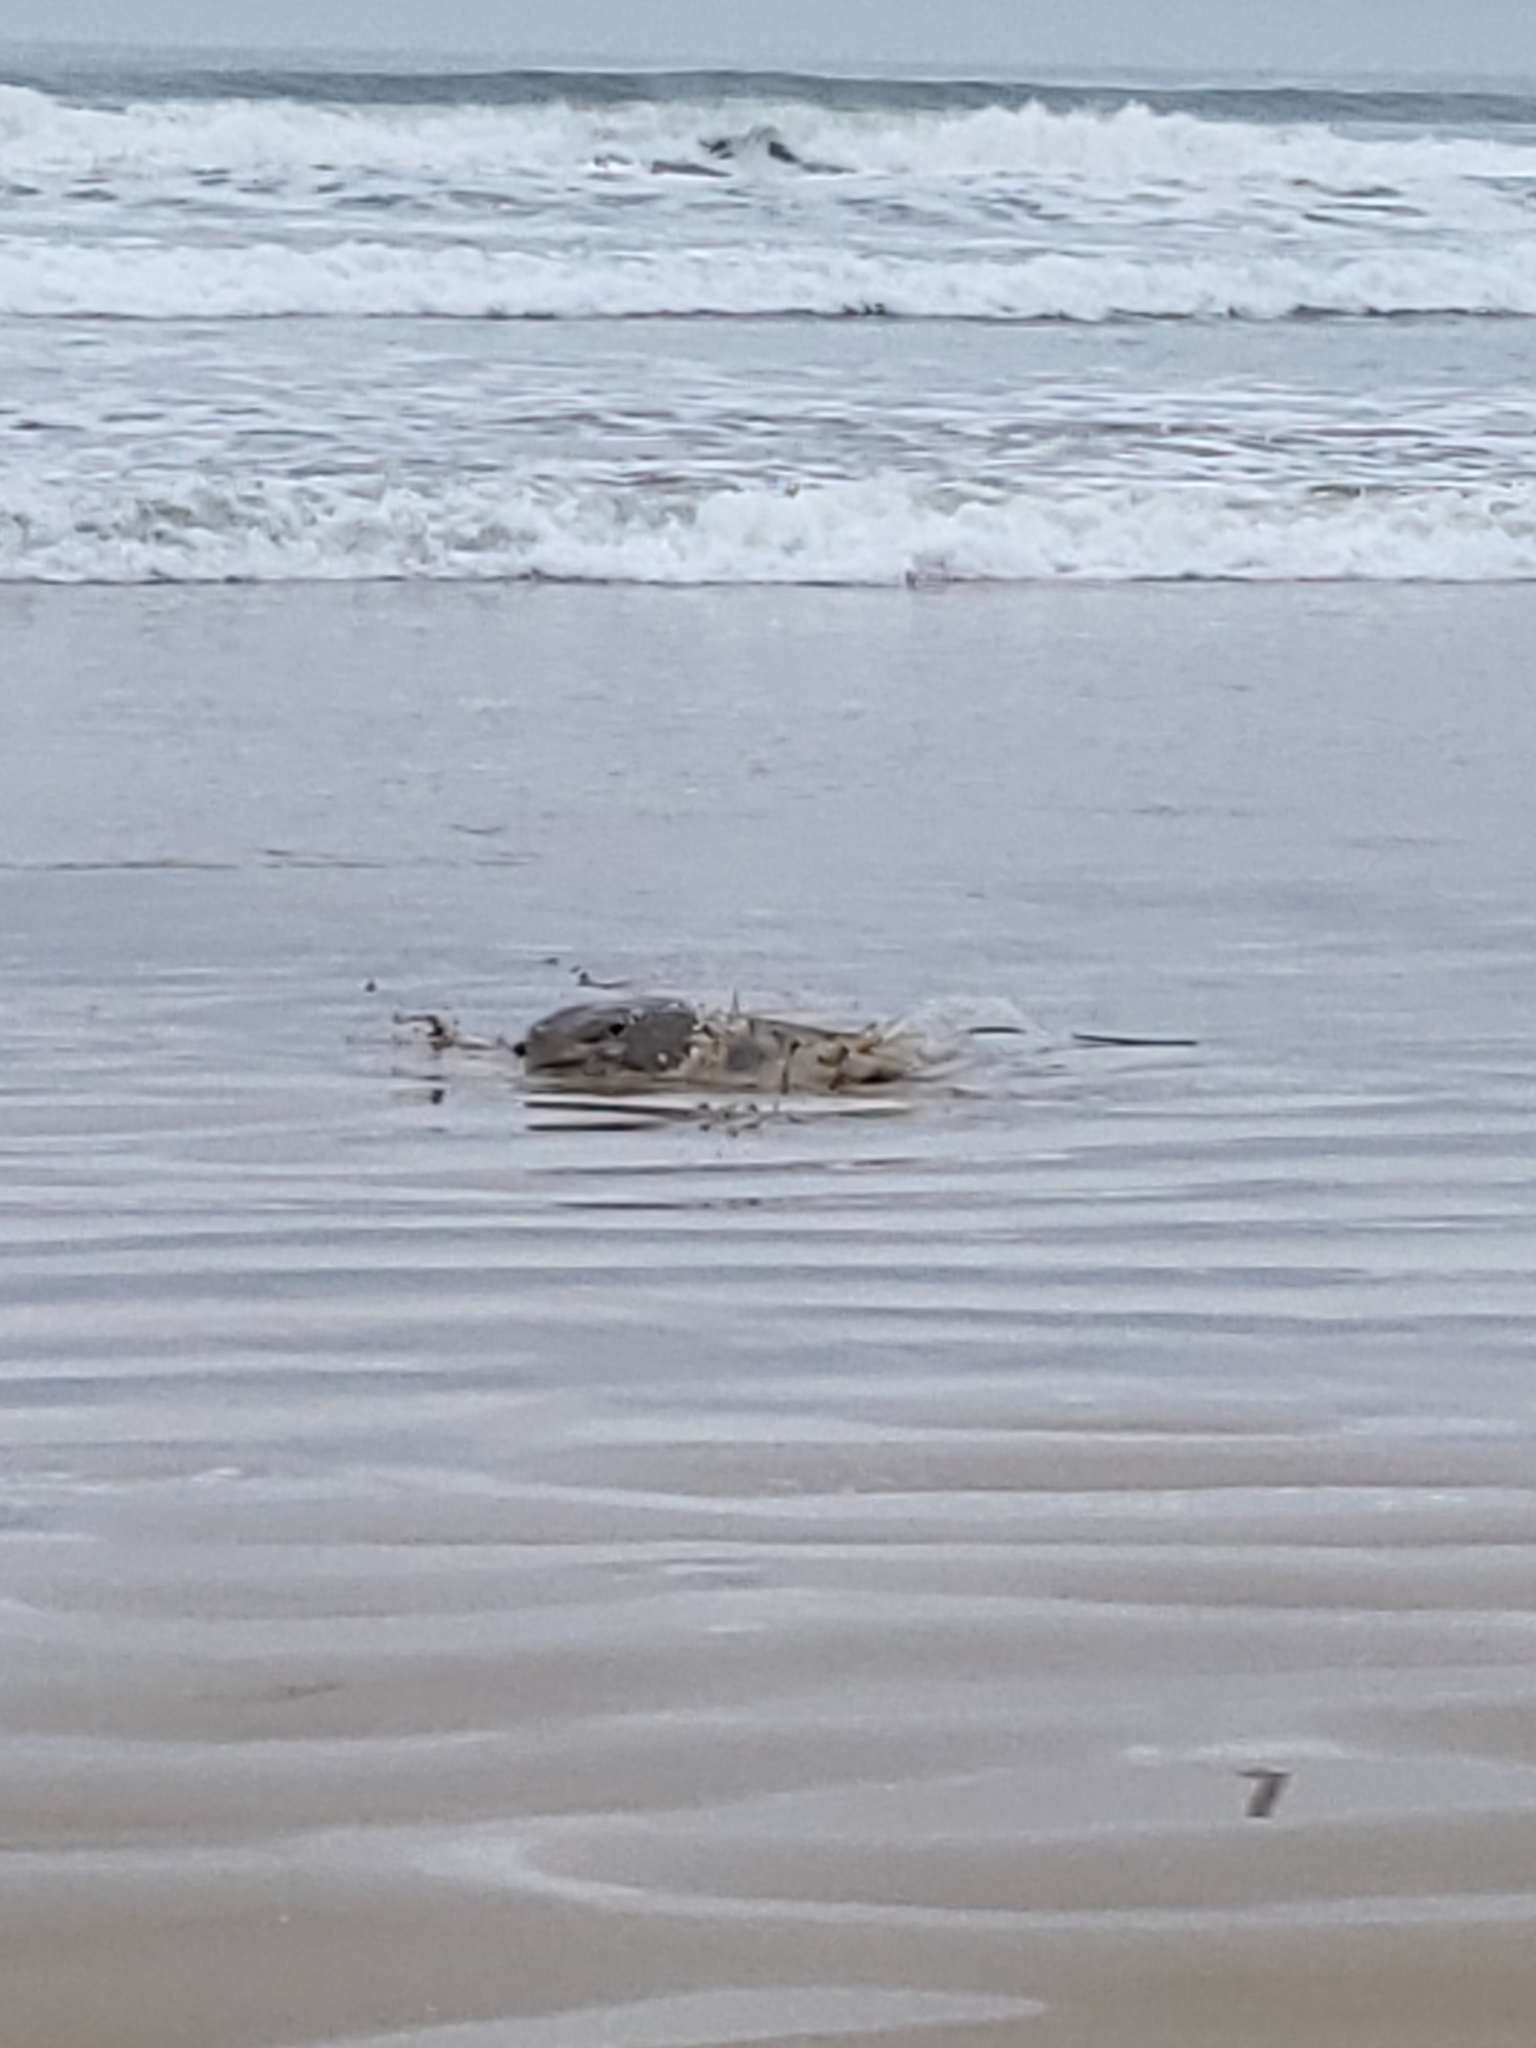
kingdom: Animalia
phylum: Chordata
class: Elasmobranchii
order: Myliobatiformes
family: Myliobatidae
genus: Myliobatis
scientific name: Myliobatis californica
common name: Bat ray
